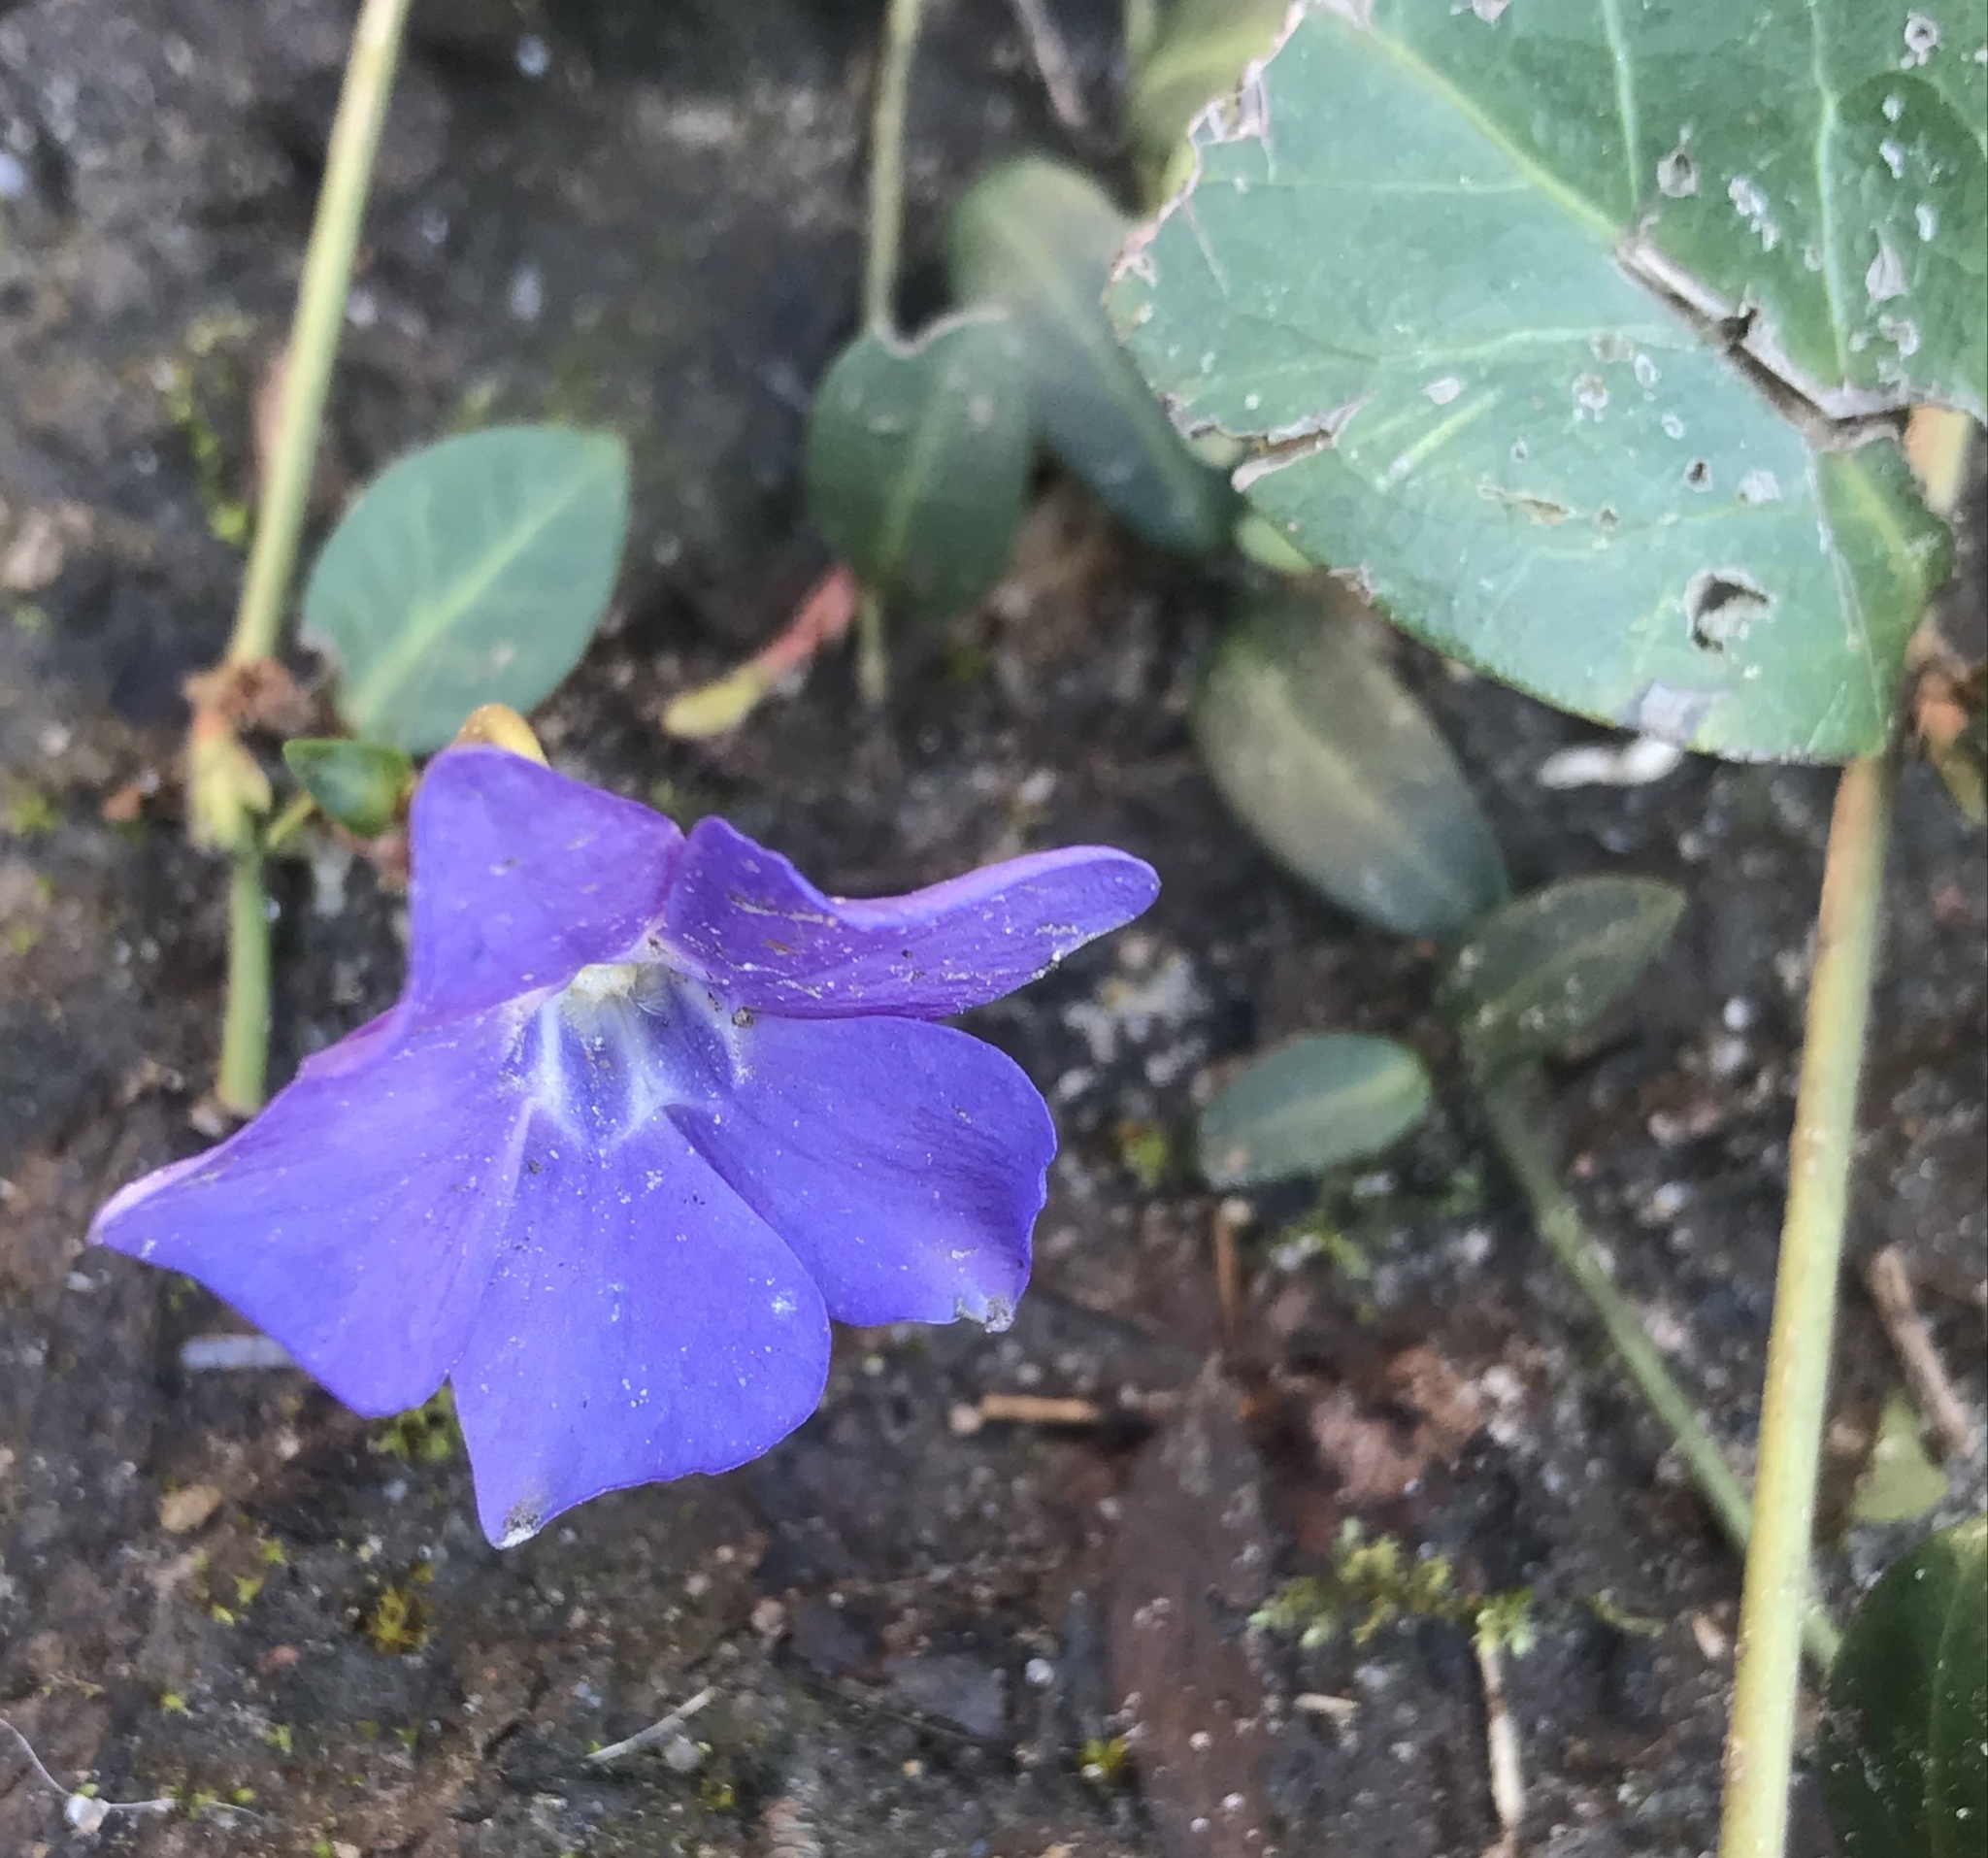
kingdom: Plantae
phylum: Tracheophyta
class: Magnoliopsida
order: Gentianales
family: Apocynaceae
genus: Vinca
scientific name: Vinca minor
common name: Lesser periwinkle
